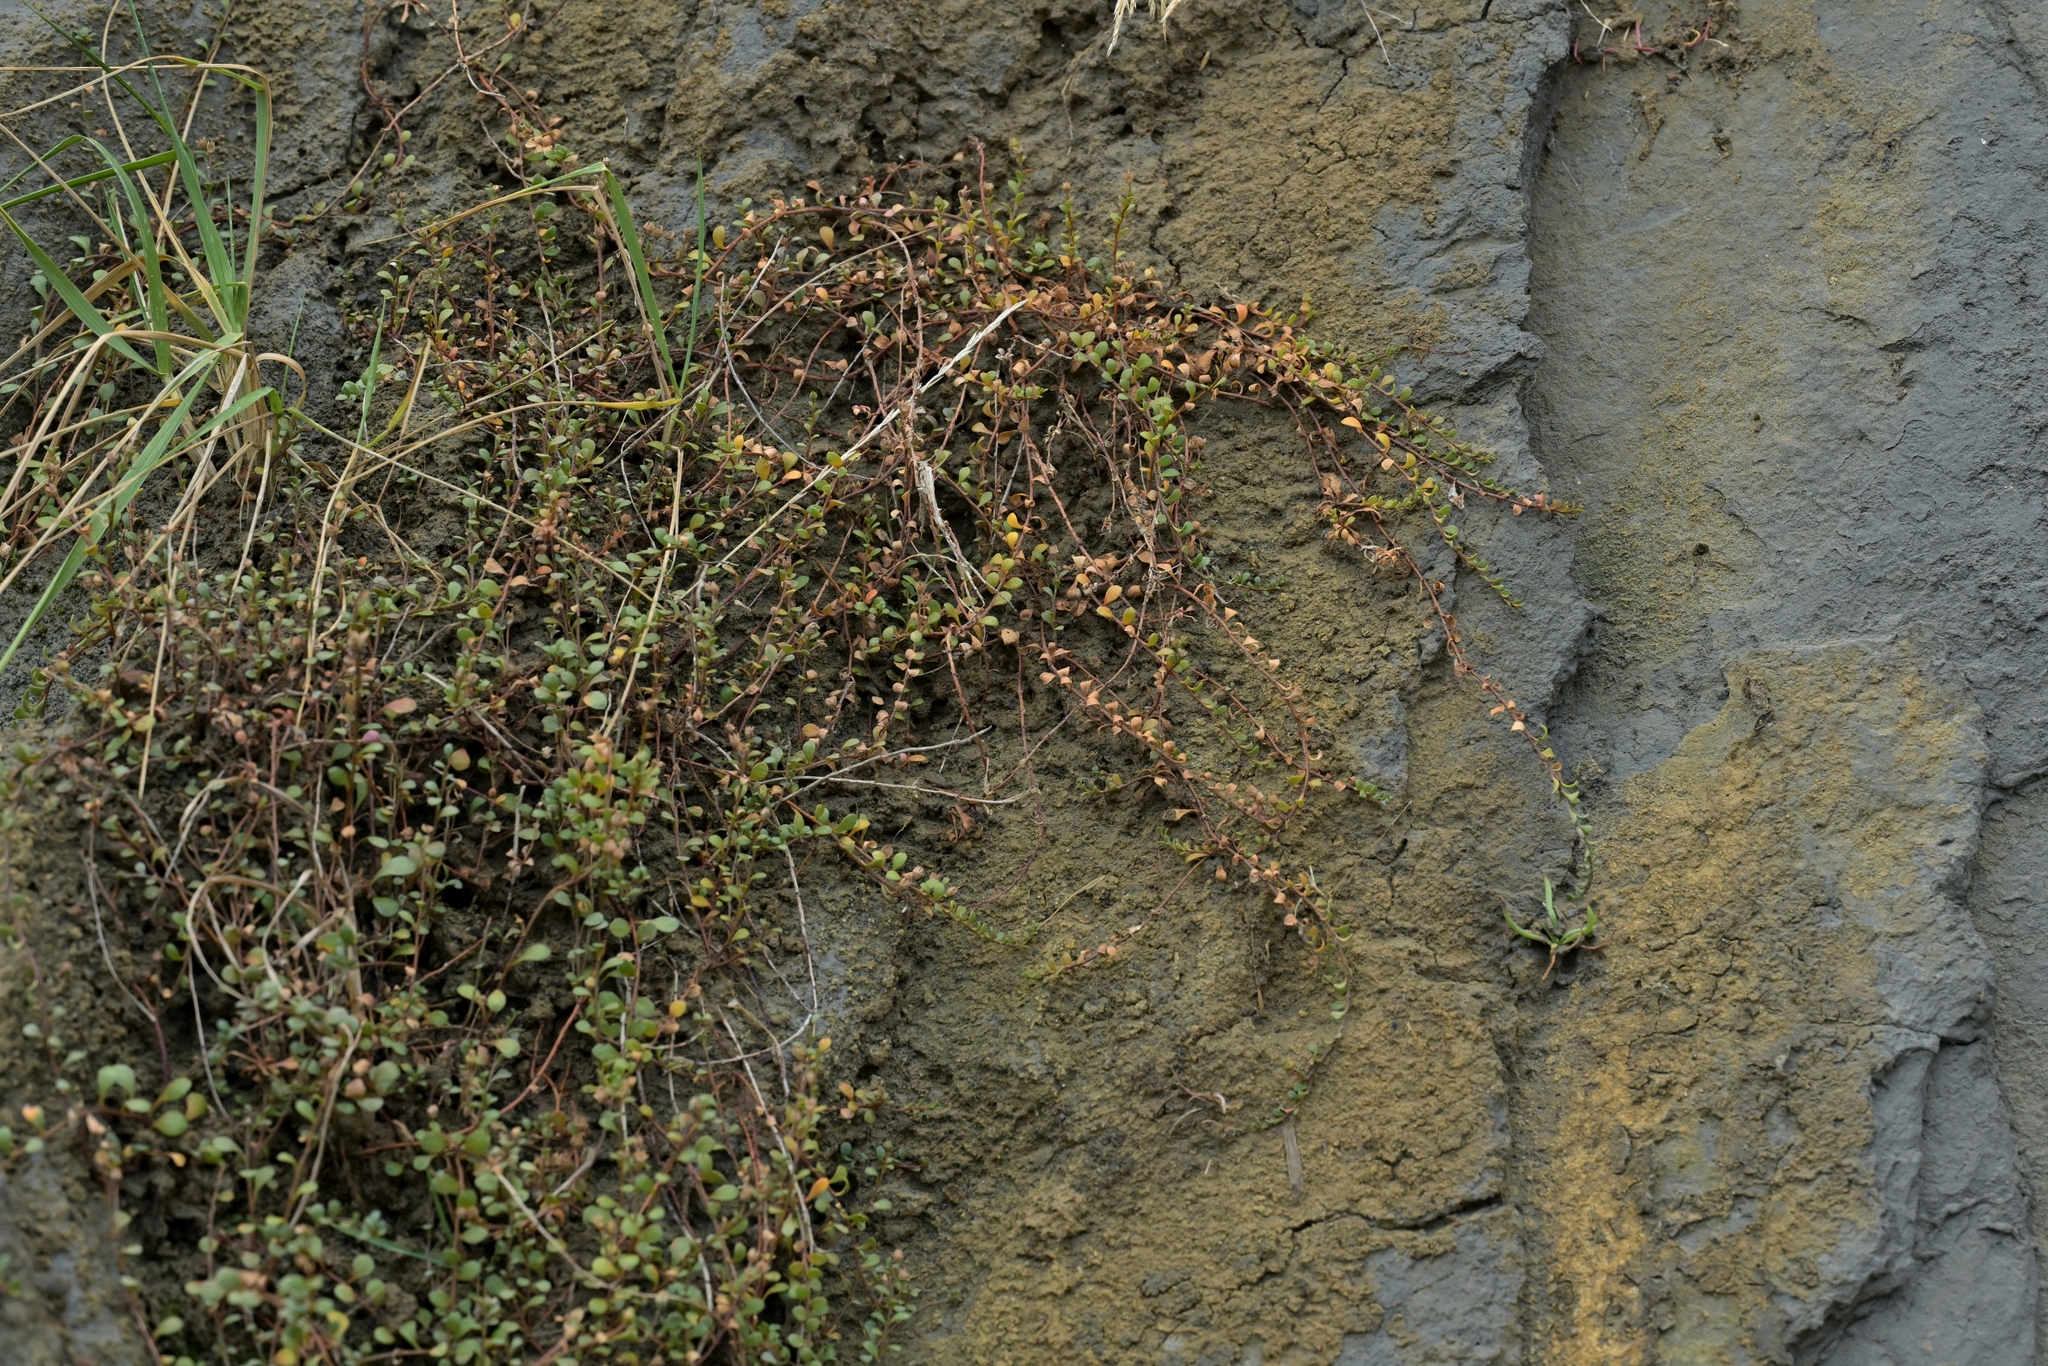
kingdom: Plantae
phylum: Tracheophyta
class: Magnoliopsida
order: Ericales
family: Primulaceae
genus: Samolus
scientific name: Samolus repens
